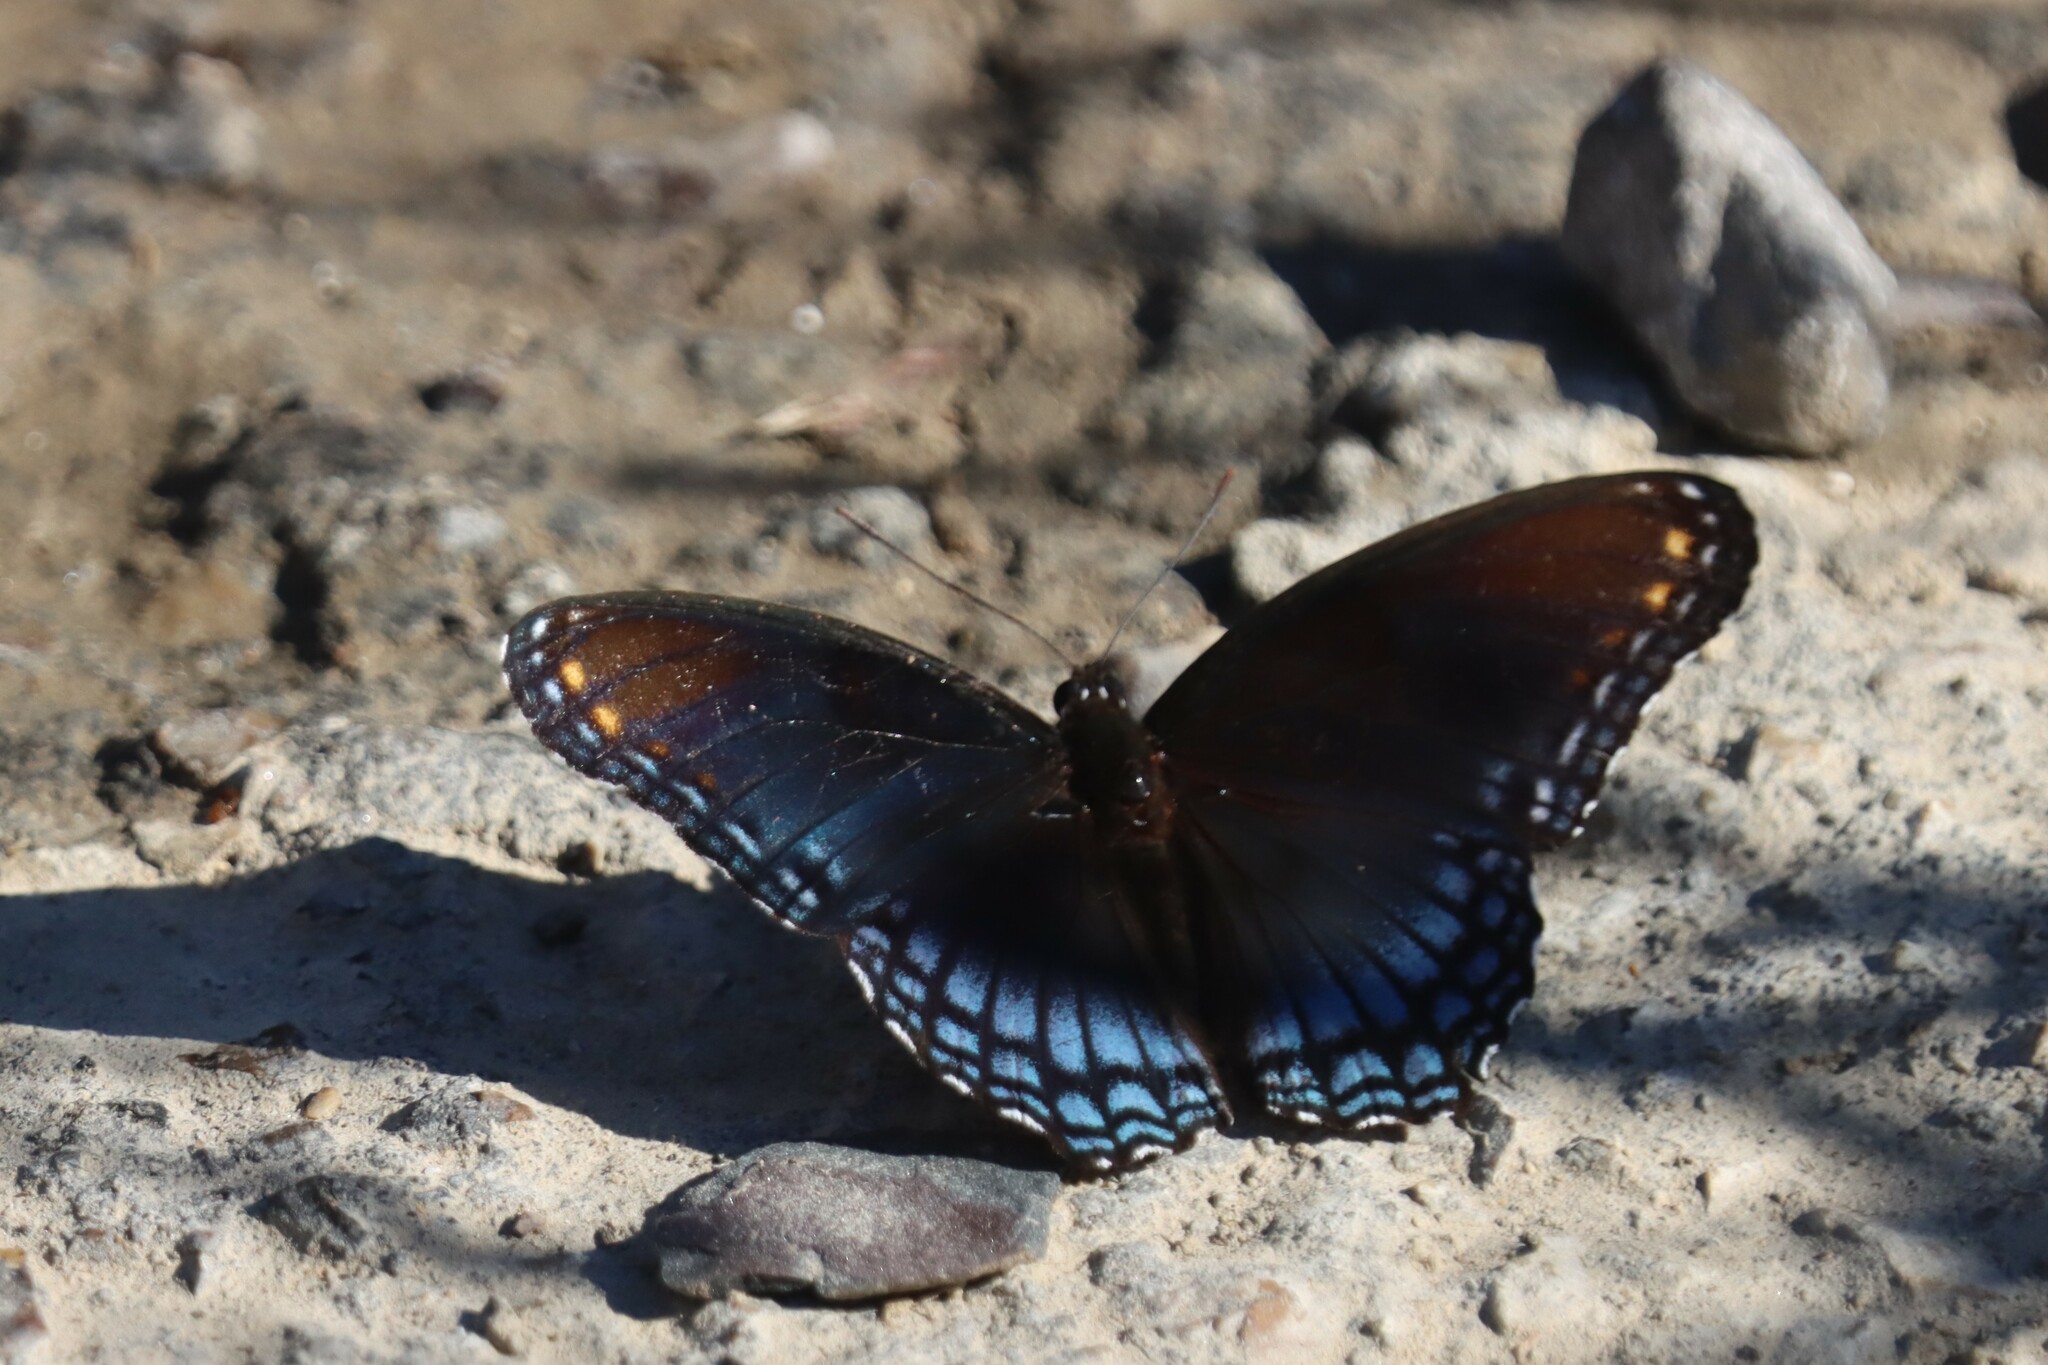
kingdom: Animalia
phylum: Arthropoda
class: Insecta
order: Lepidoptera
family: Nymphalidae
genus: Limenitis
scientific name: Limenitis astyanax
